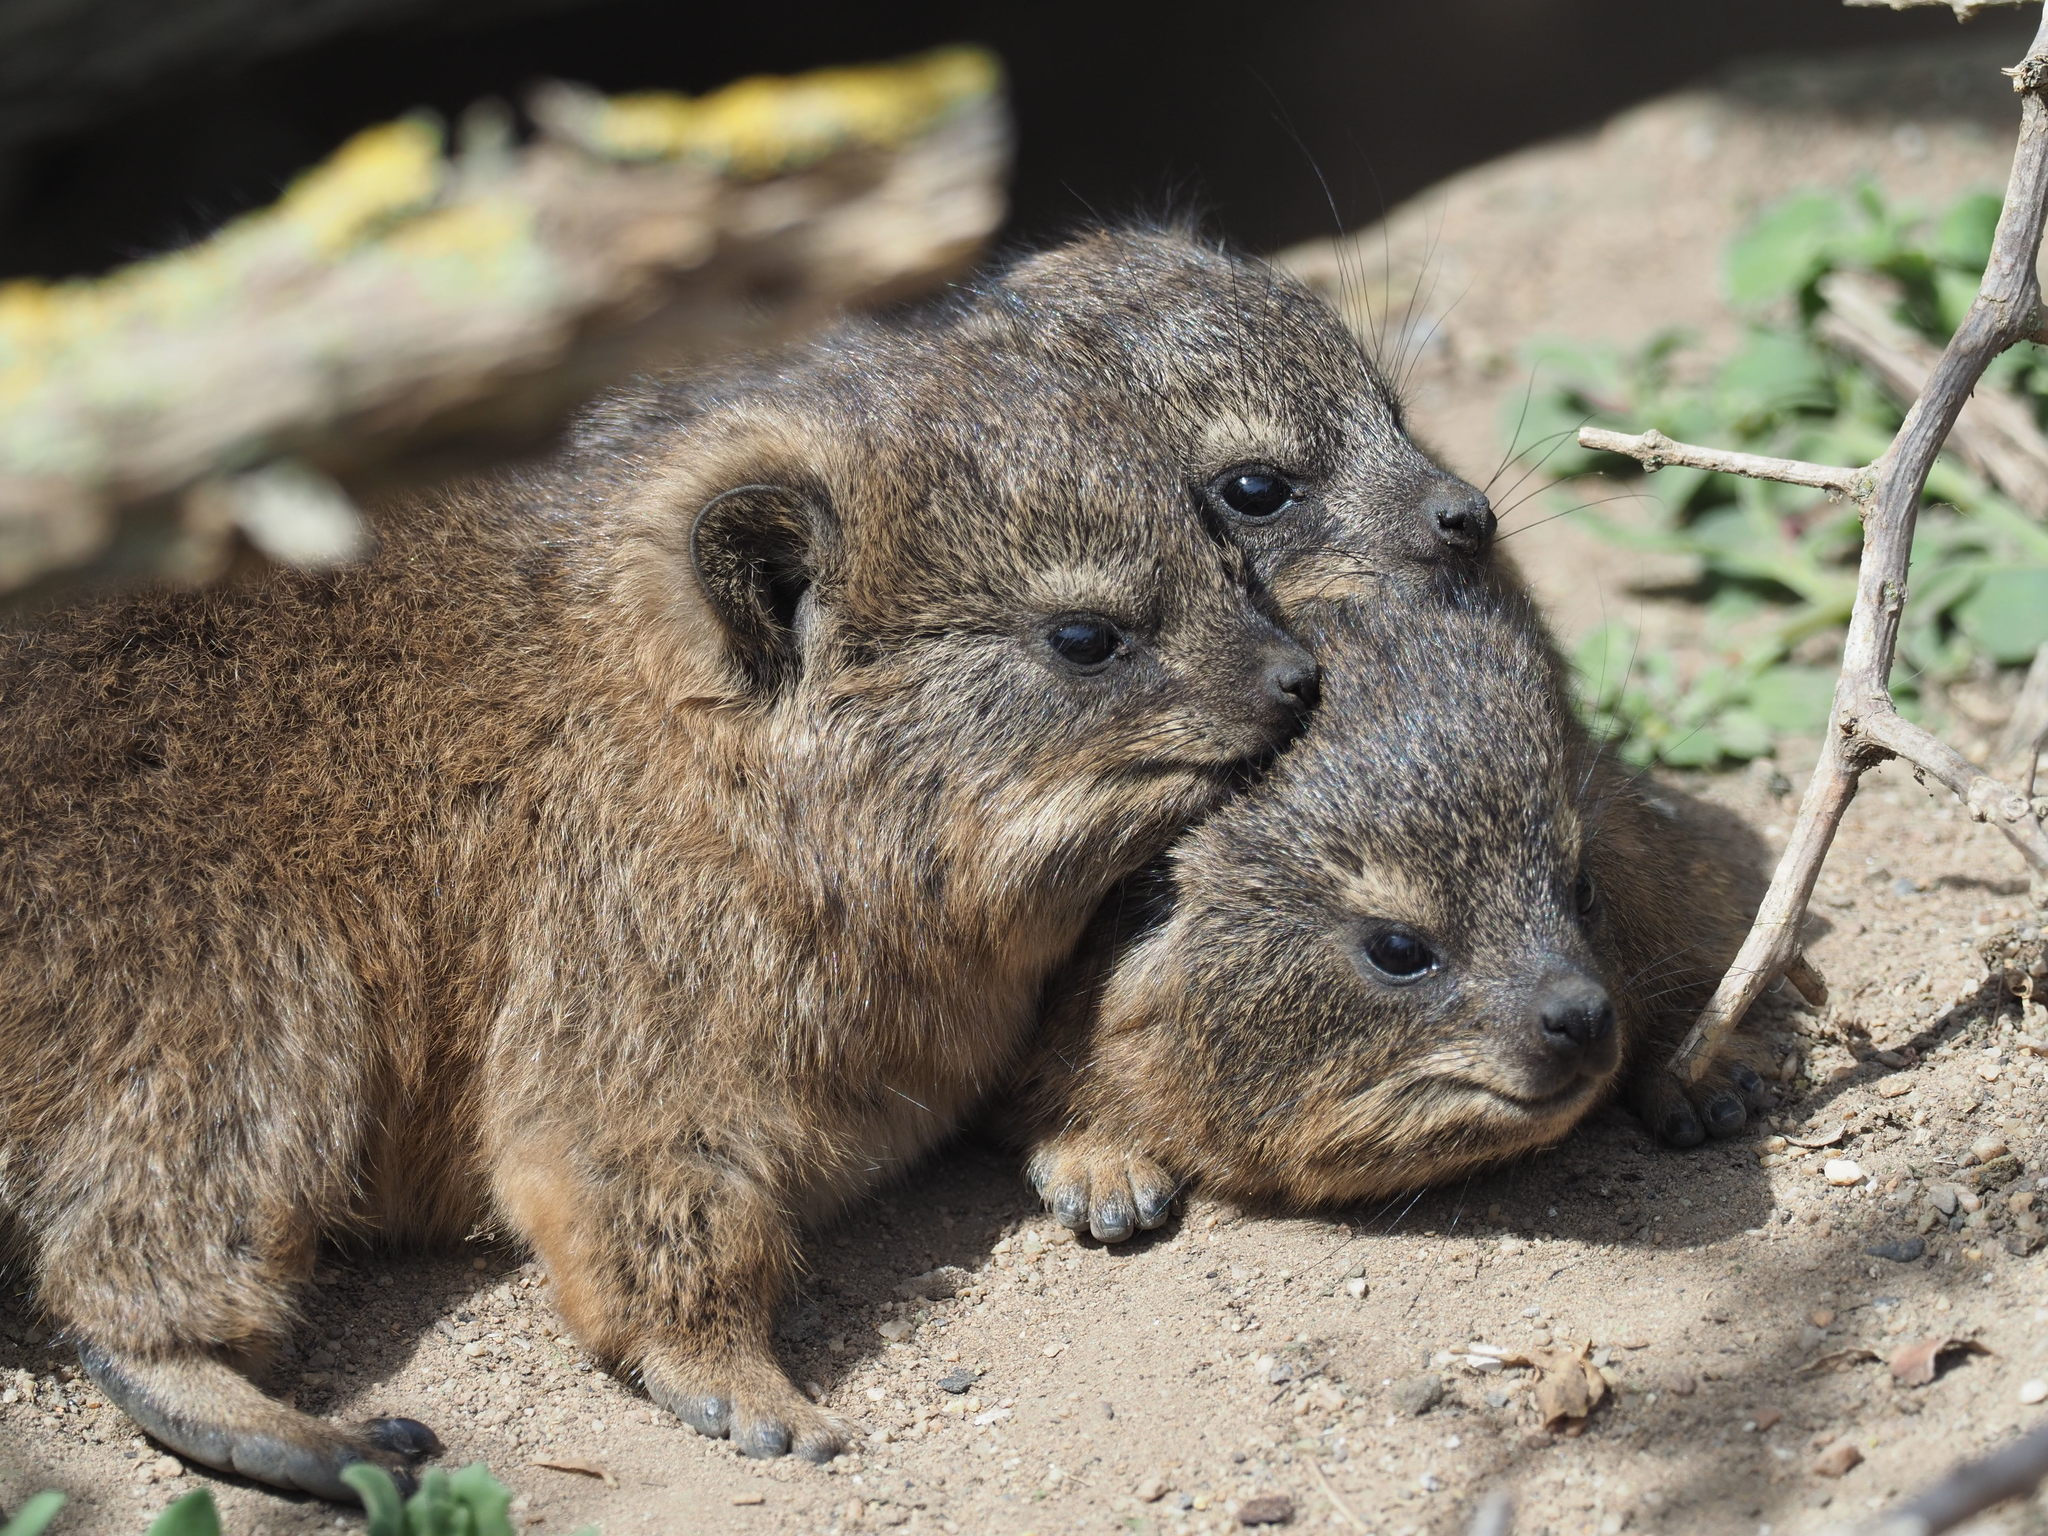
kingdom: Animalia
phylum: Chordata
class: Mammalia
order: Hyracoidea
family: Procaviidae
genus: Procavia
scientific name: Procavia capensis
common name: Rock hyrax
